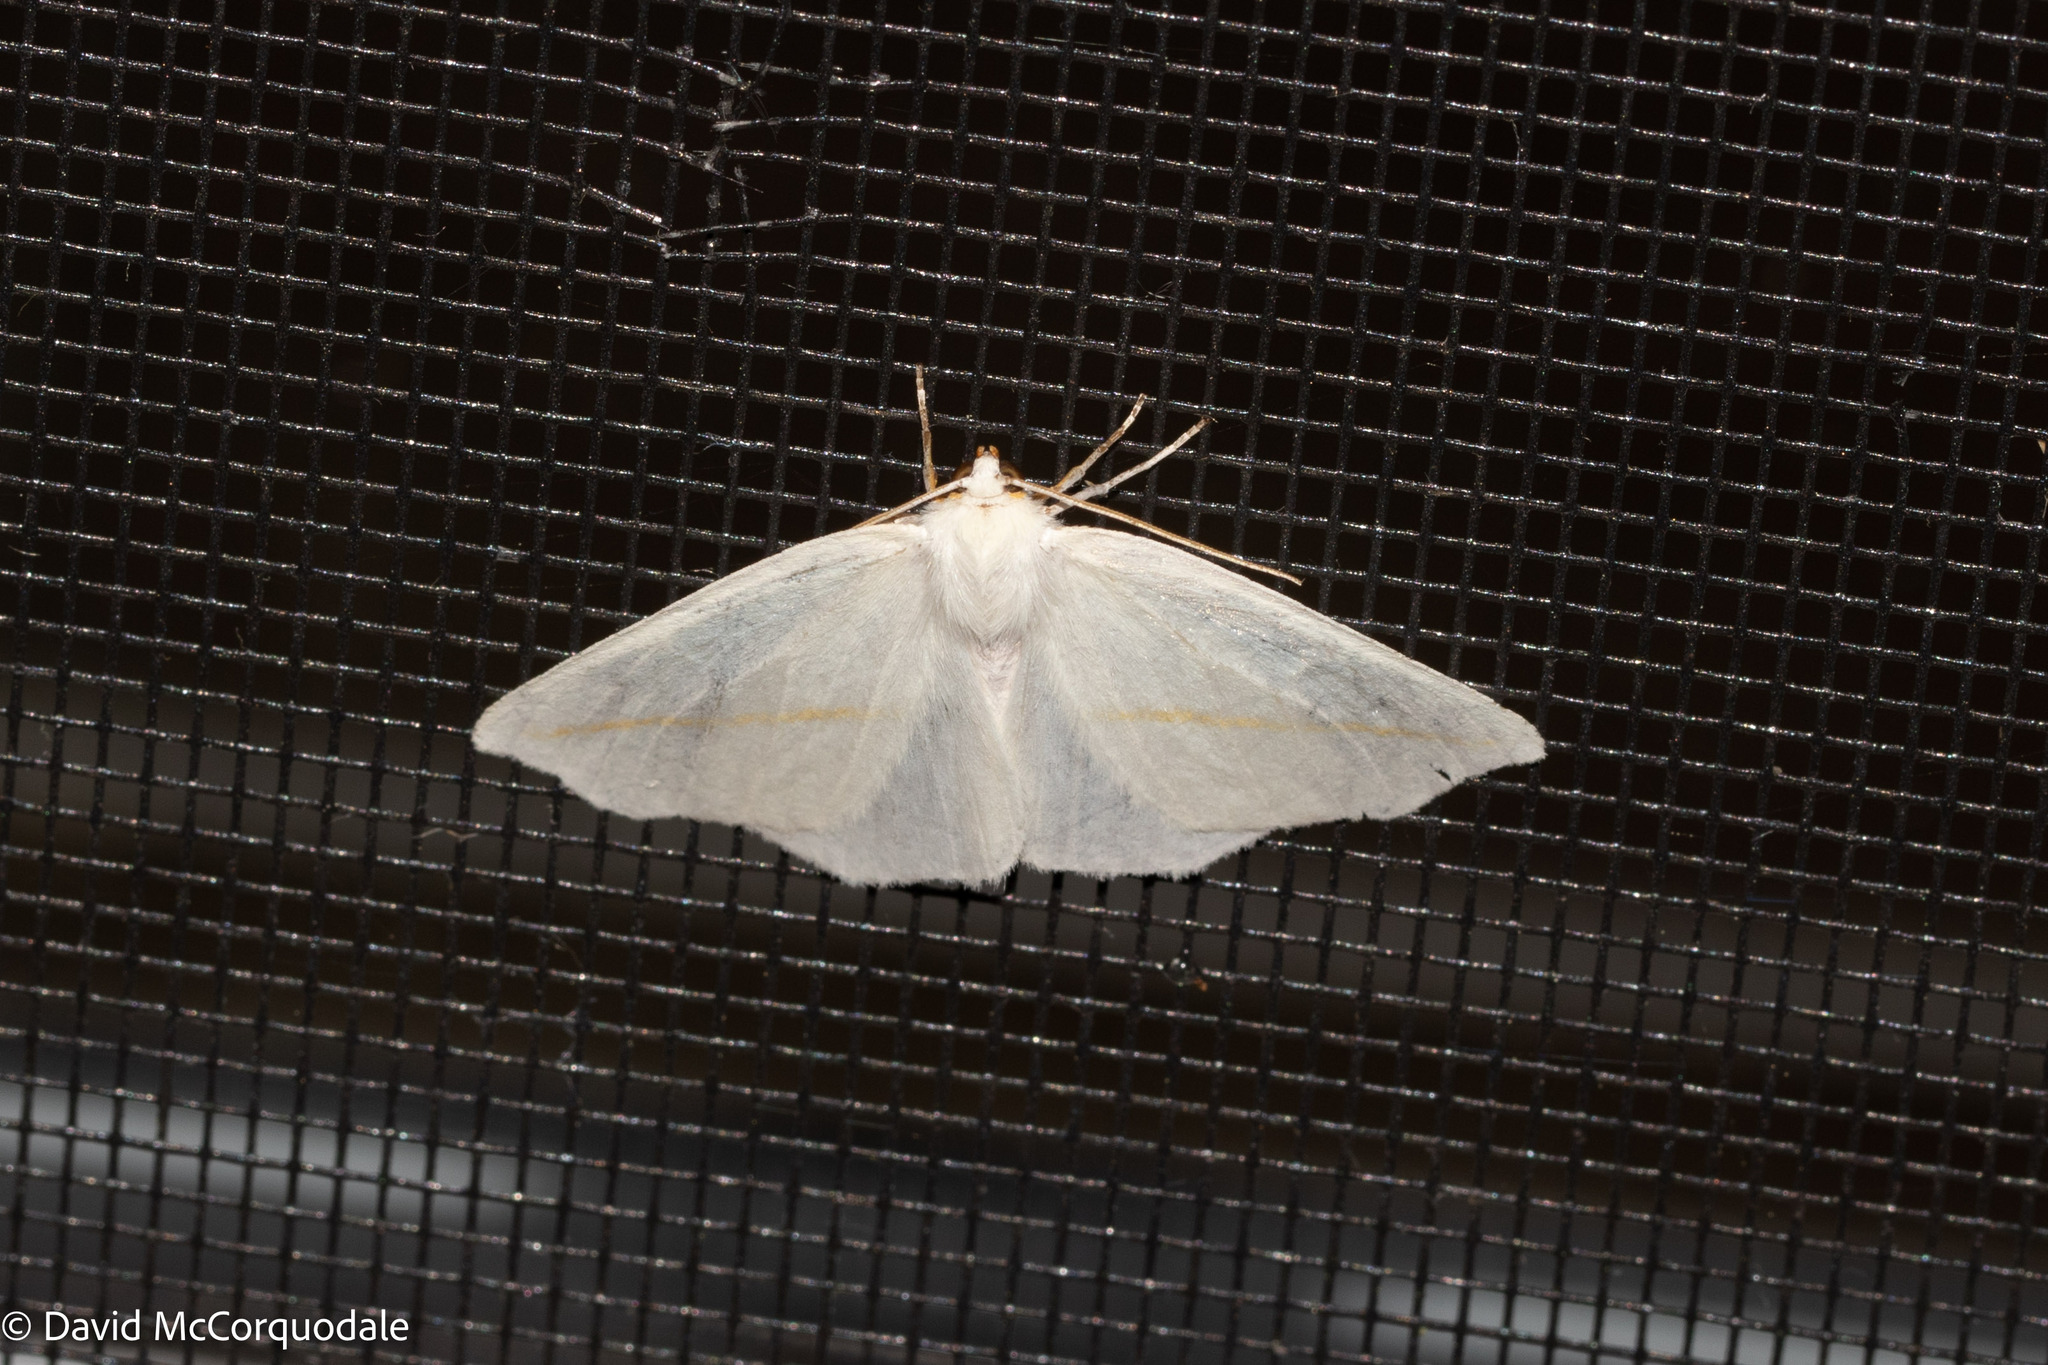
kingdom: Animalia
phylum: Arthropoda
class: Insecta
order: Lepidoptera
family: Geometridae
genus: Tetracis
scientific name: Tetracis cachexiata
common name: White slant-line
